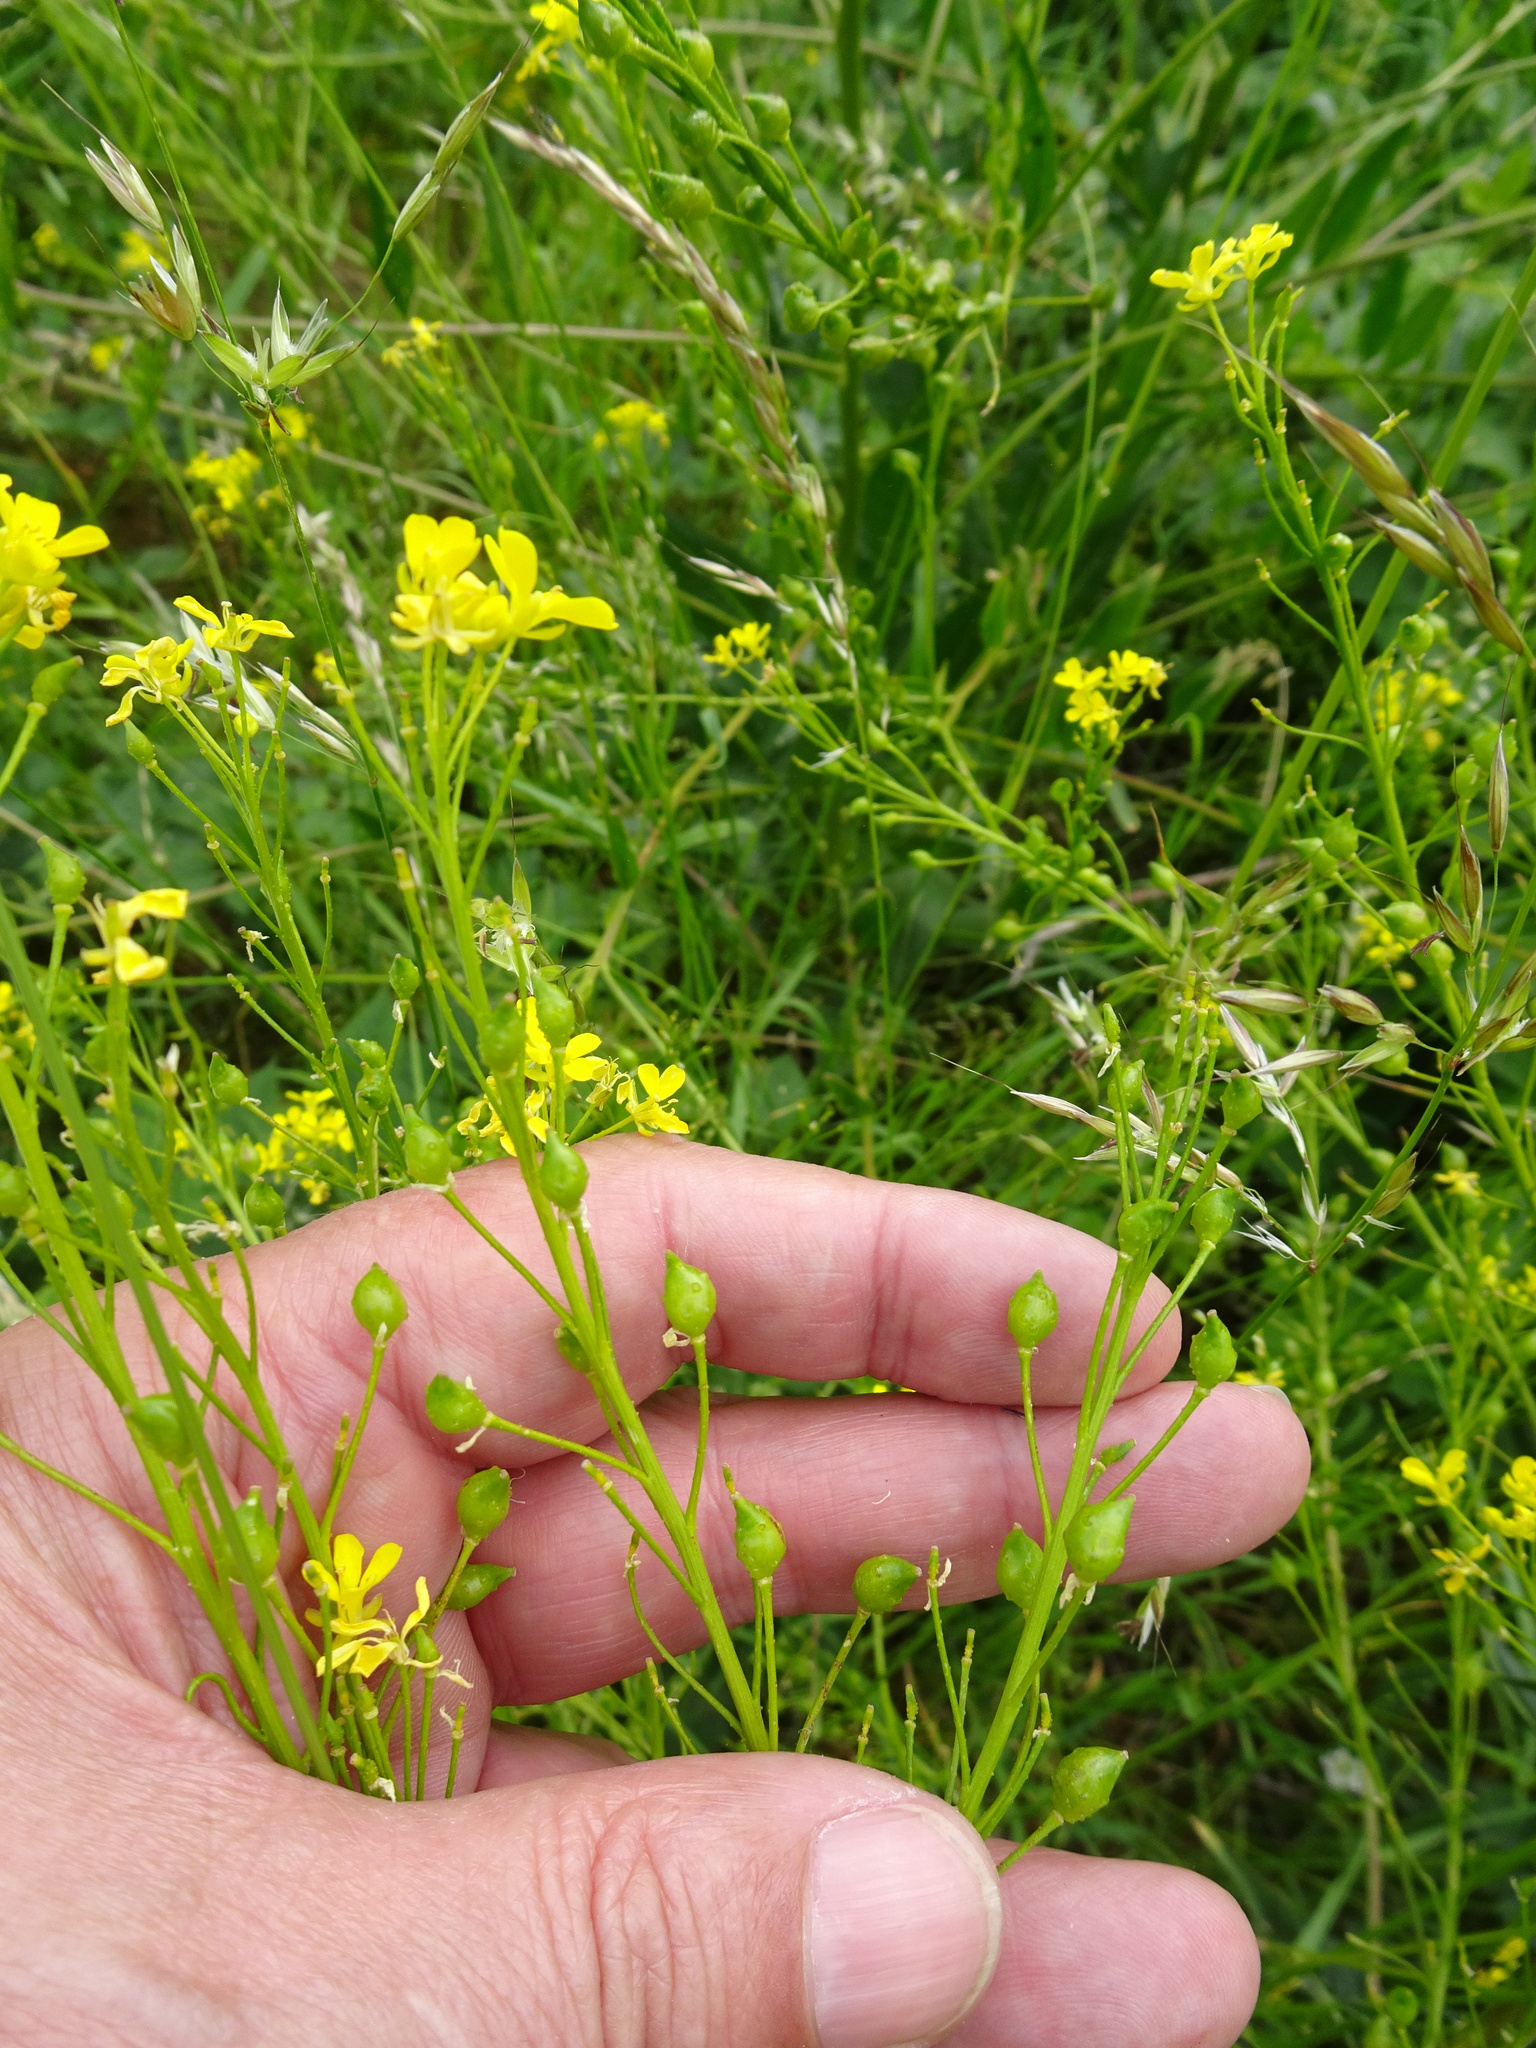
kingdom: Plantae
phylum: Tracheophyta
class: Magnoliopsida
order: Brassicales
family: Brassicaceae
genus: Bunias
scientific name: Bunias orientalis
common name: Warty-cabbage
